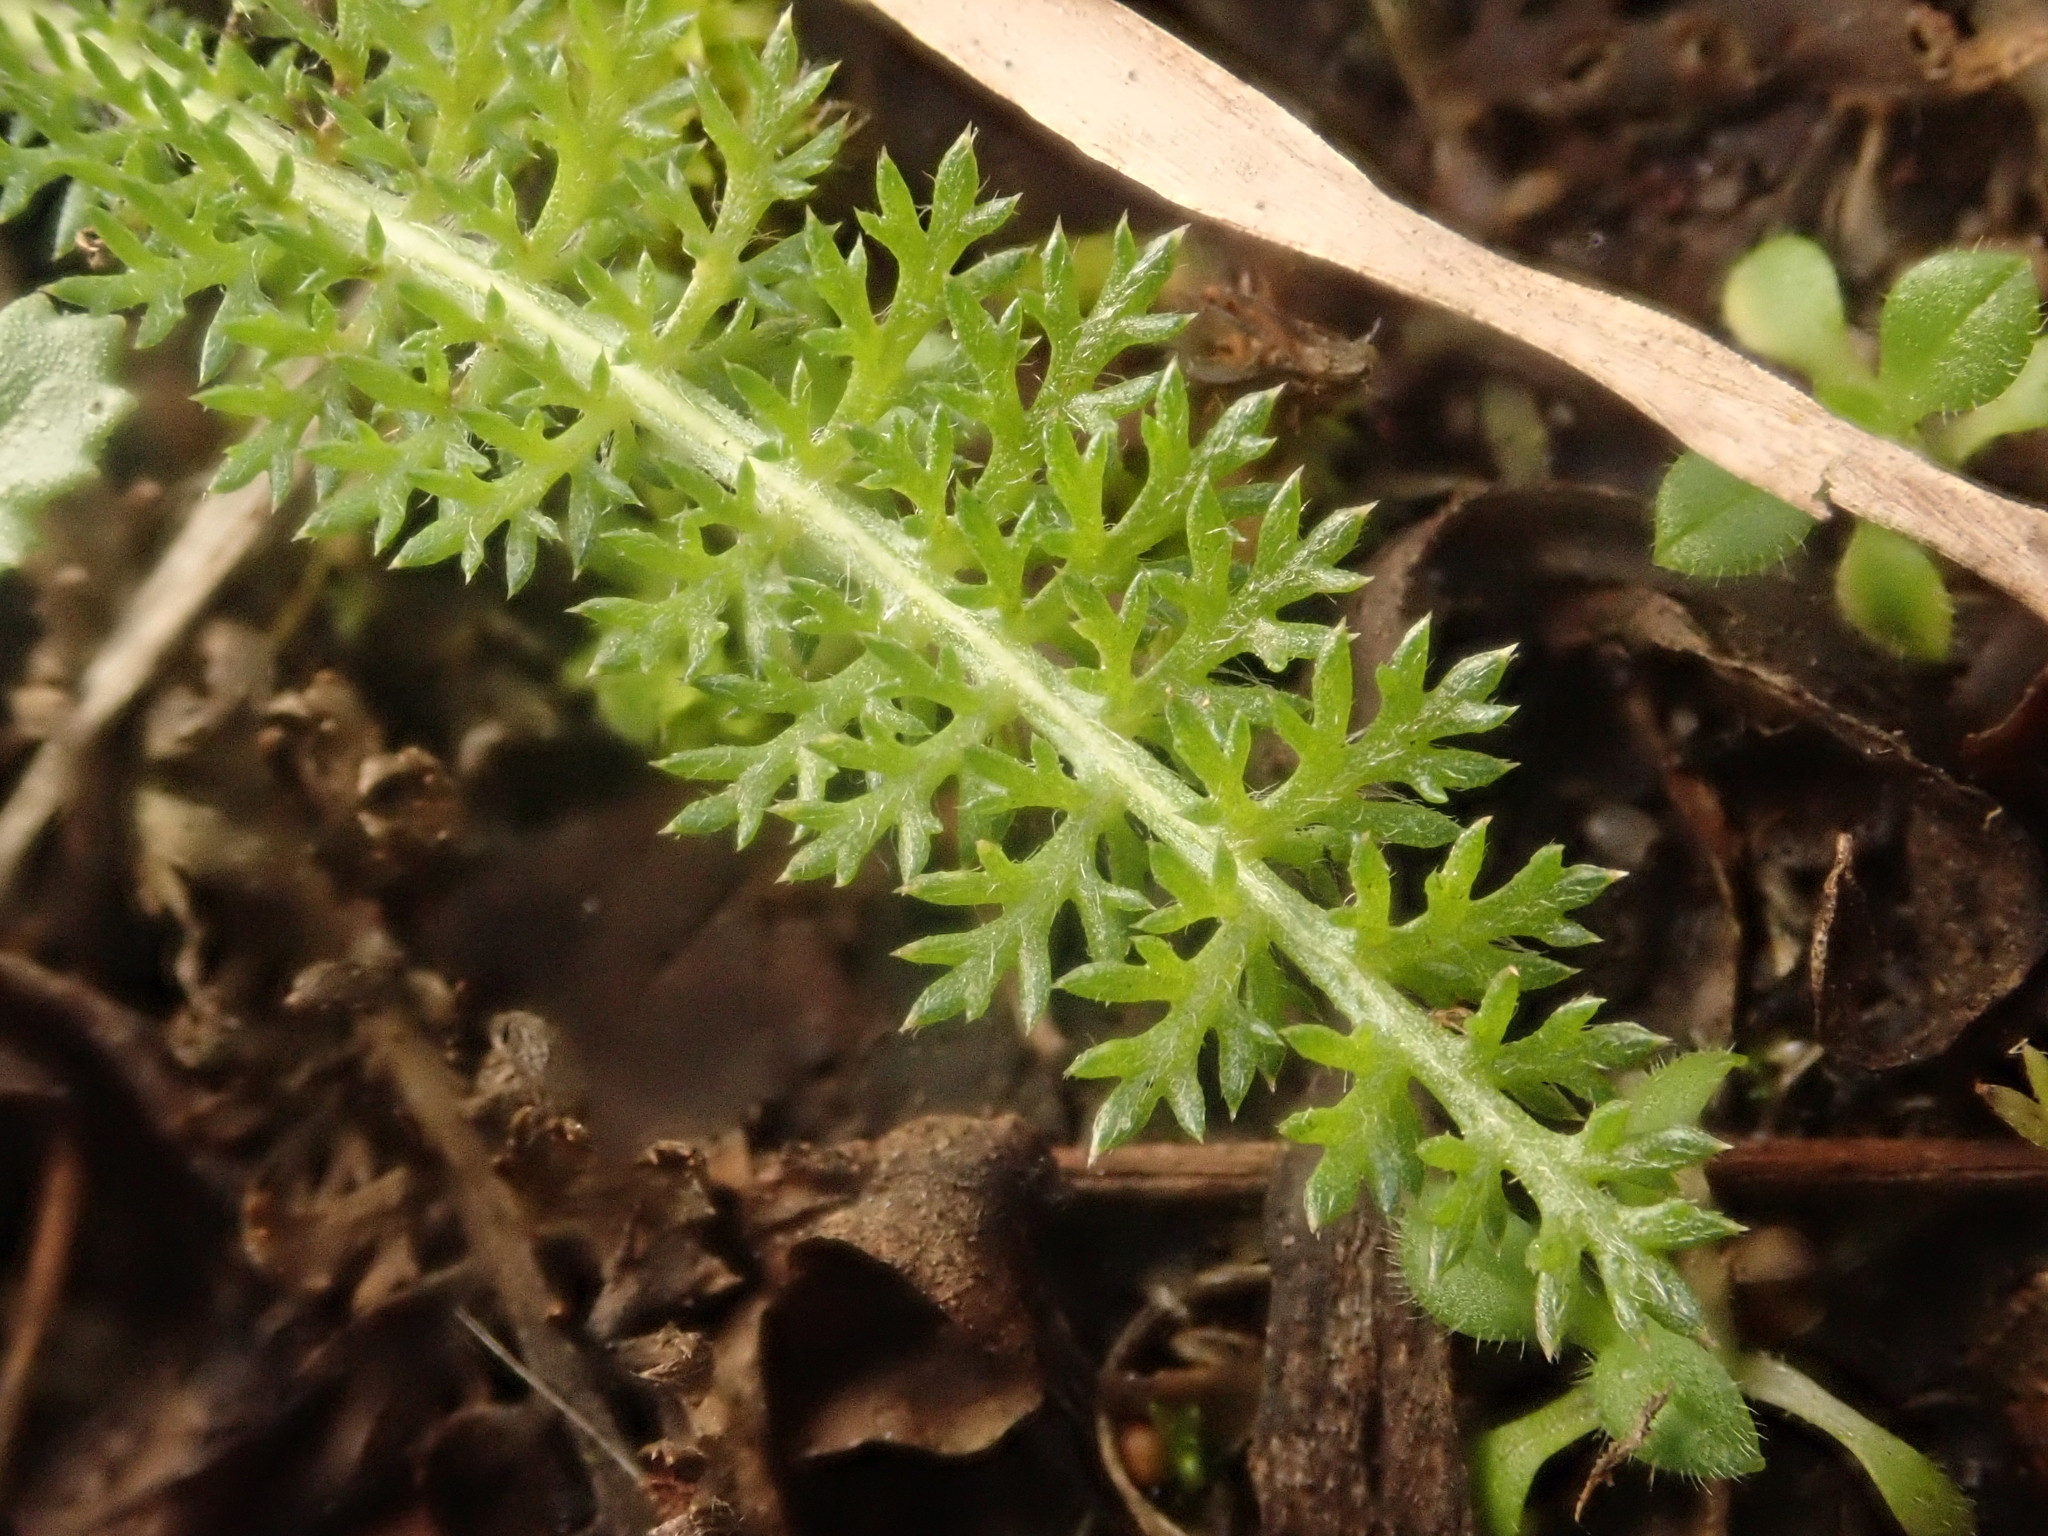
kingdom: Plantae
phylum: Tracheophyta
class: Magnoliopsida
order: Asterales
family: Asteraceae
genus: Achillea
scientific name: Achillea millefolium
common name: Yarrow
